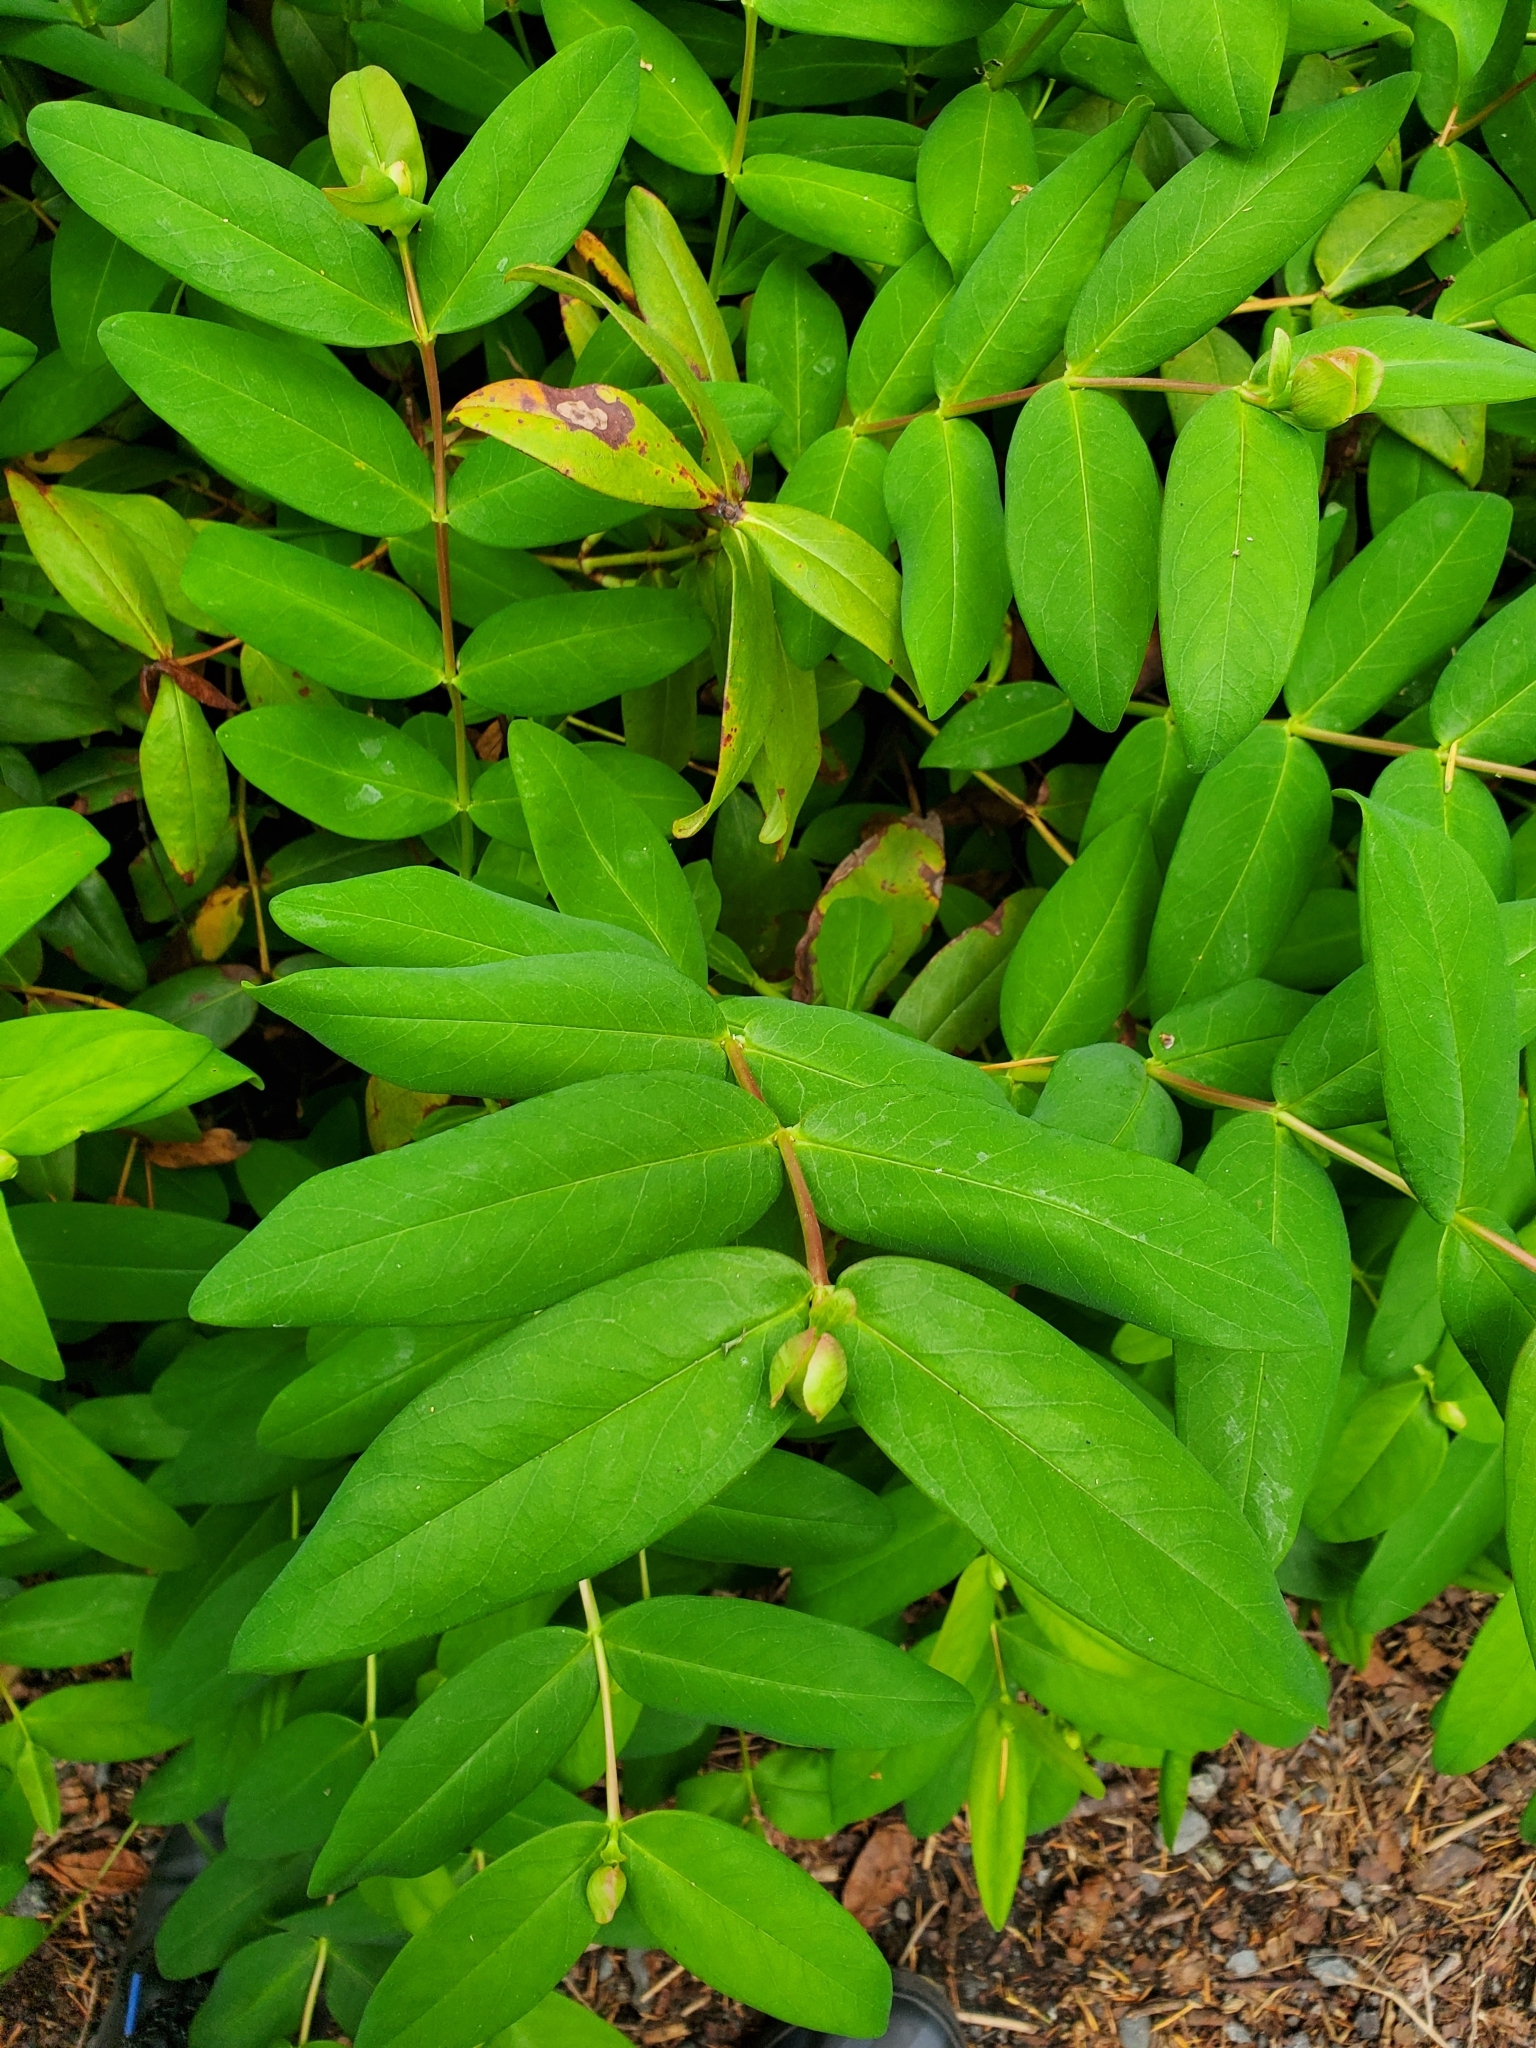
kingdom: Plantae
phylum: Tracheophyta
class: Magnoliopsida
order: Dipsacales
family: Caprifoliaceae
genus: Symphoricarpos
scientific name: Symphoricarpos mollis
